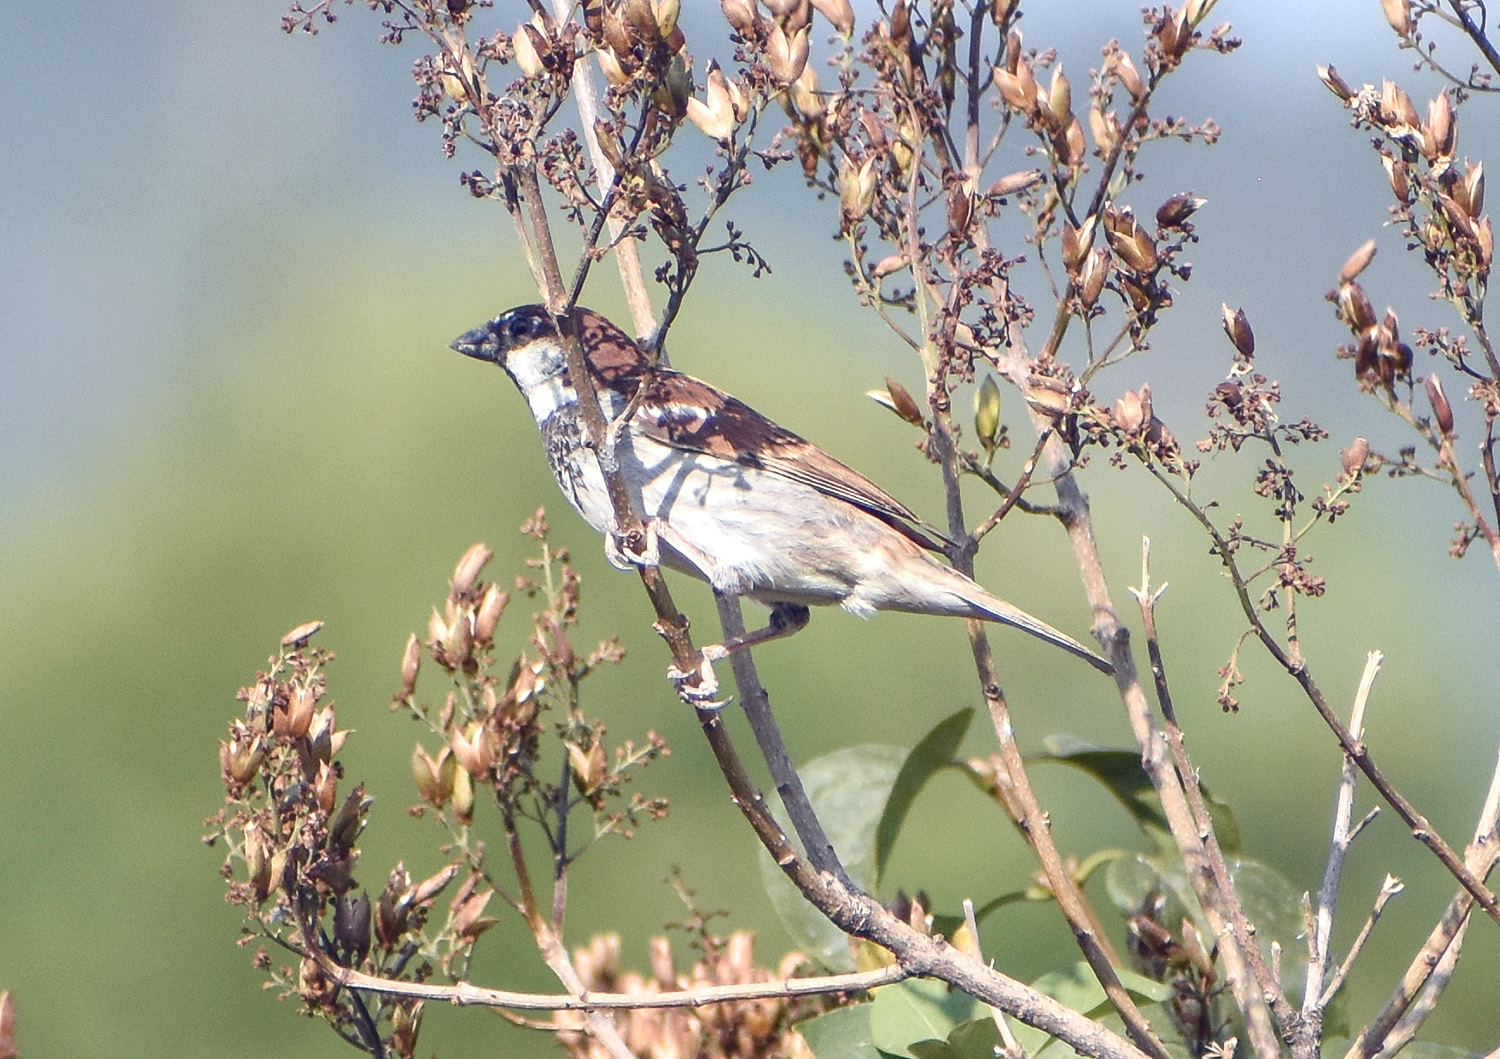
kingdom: Animalia
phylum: Chordata
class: Aves
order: Passeriformes
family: Passeridae
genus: Passer
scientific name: Passer italiae
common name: Italian sparrow
